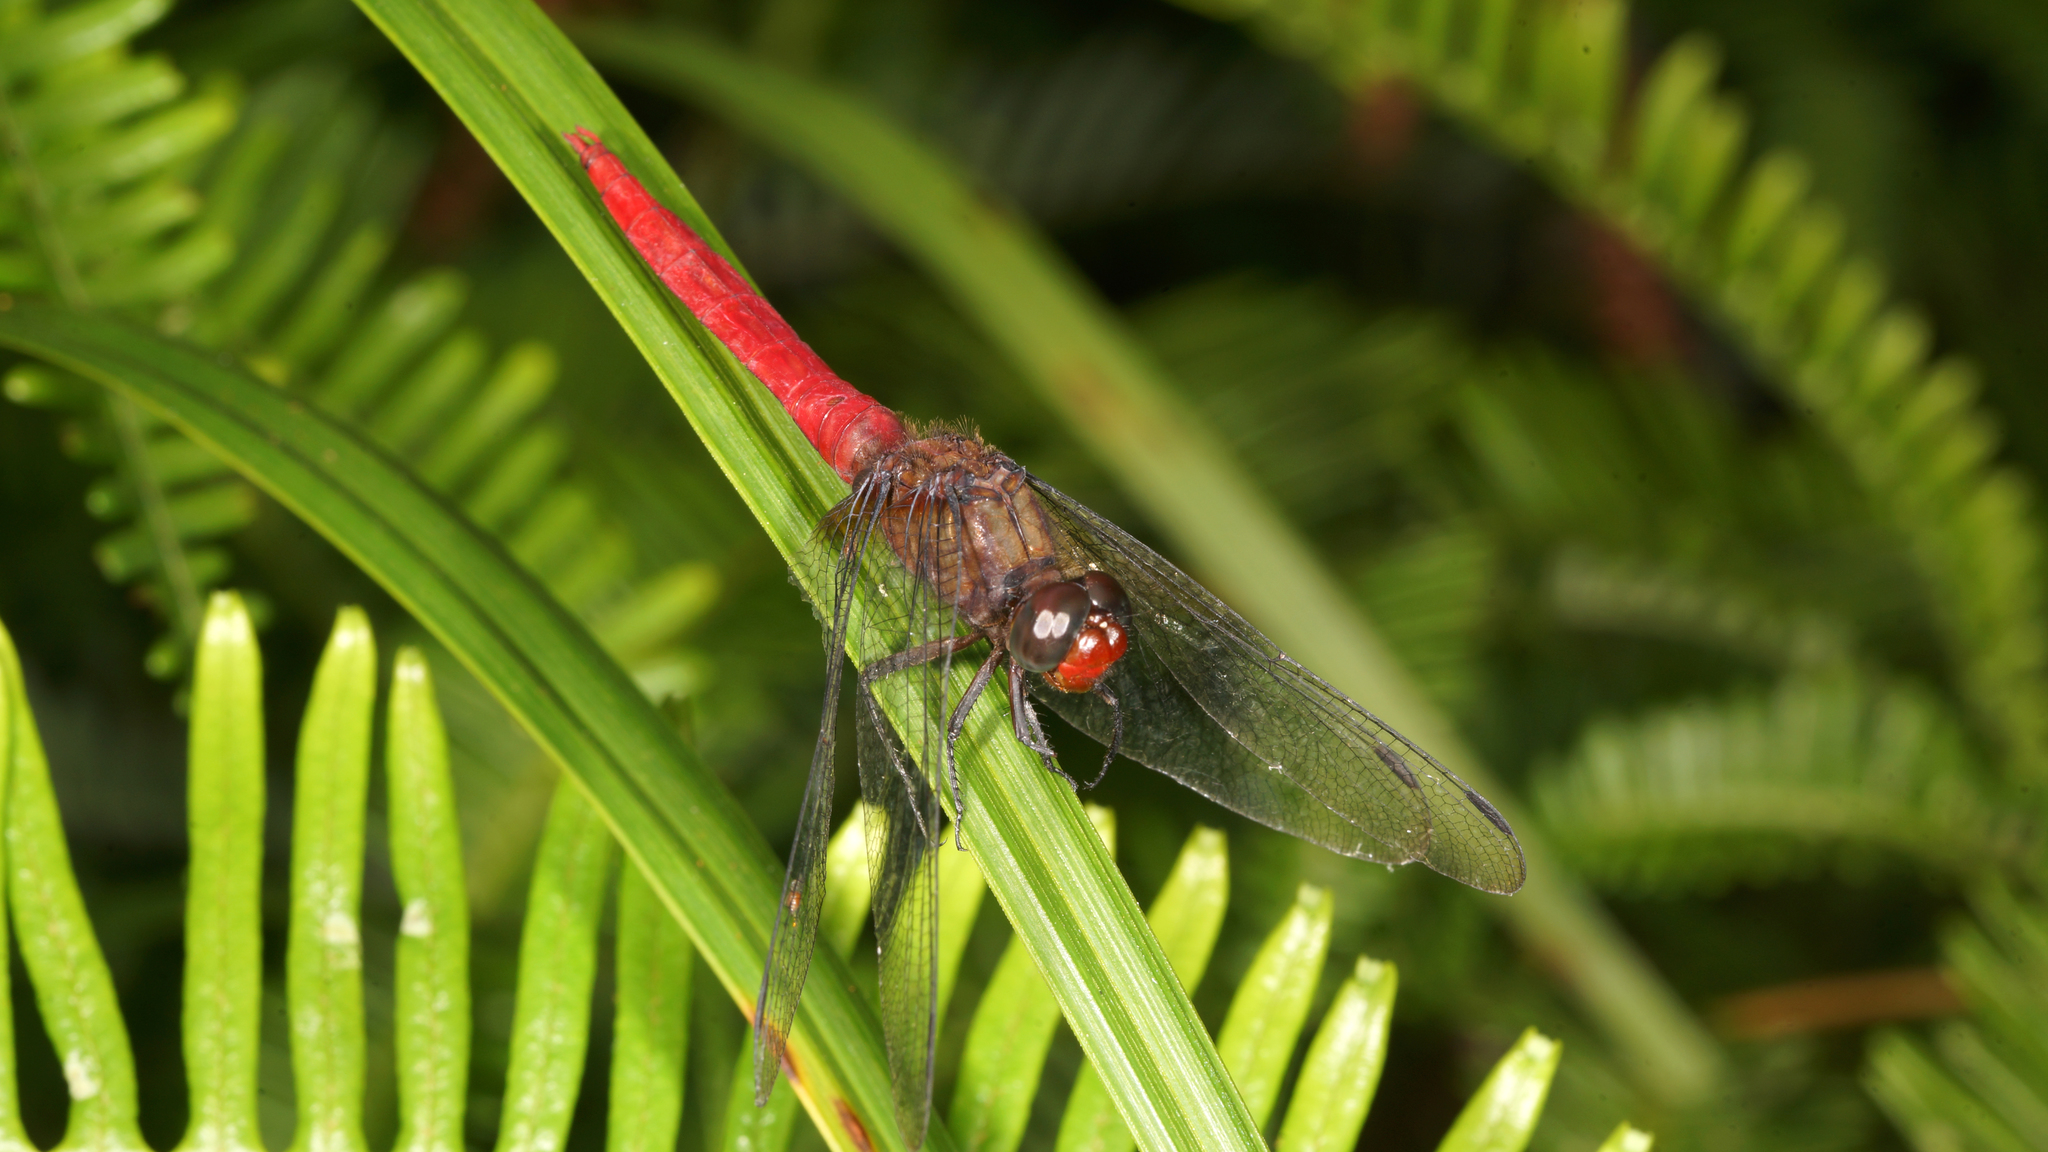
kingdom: Animalia
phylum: Arthropoda
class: Insecta
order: Odonata
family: Libellulidae
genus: Orthetrum
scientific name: Orthetrum chrysis
